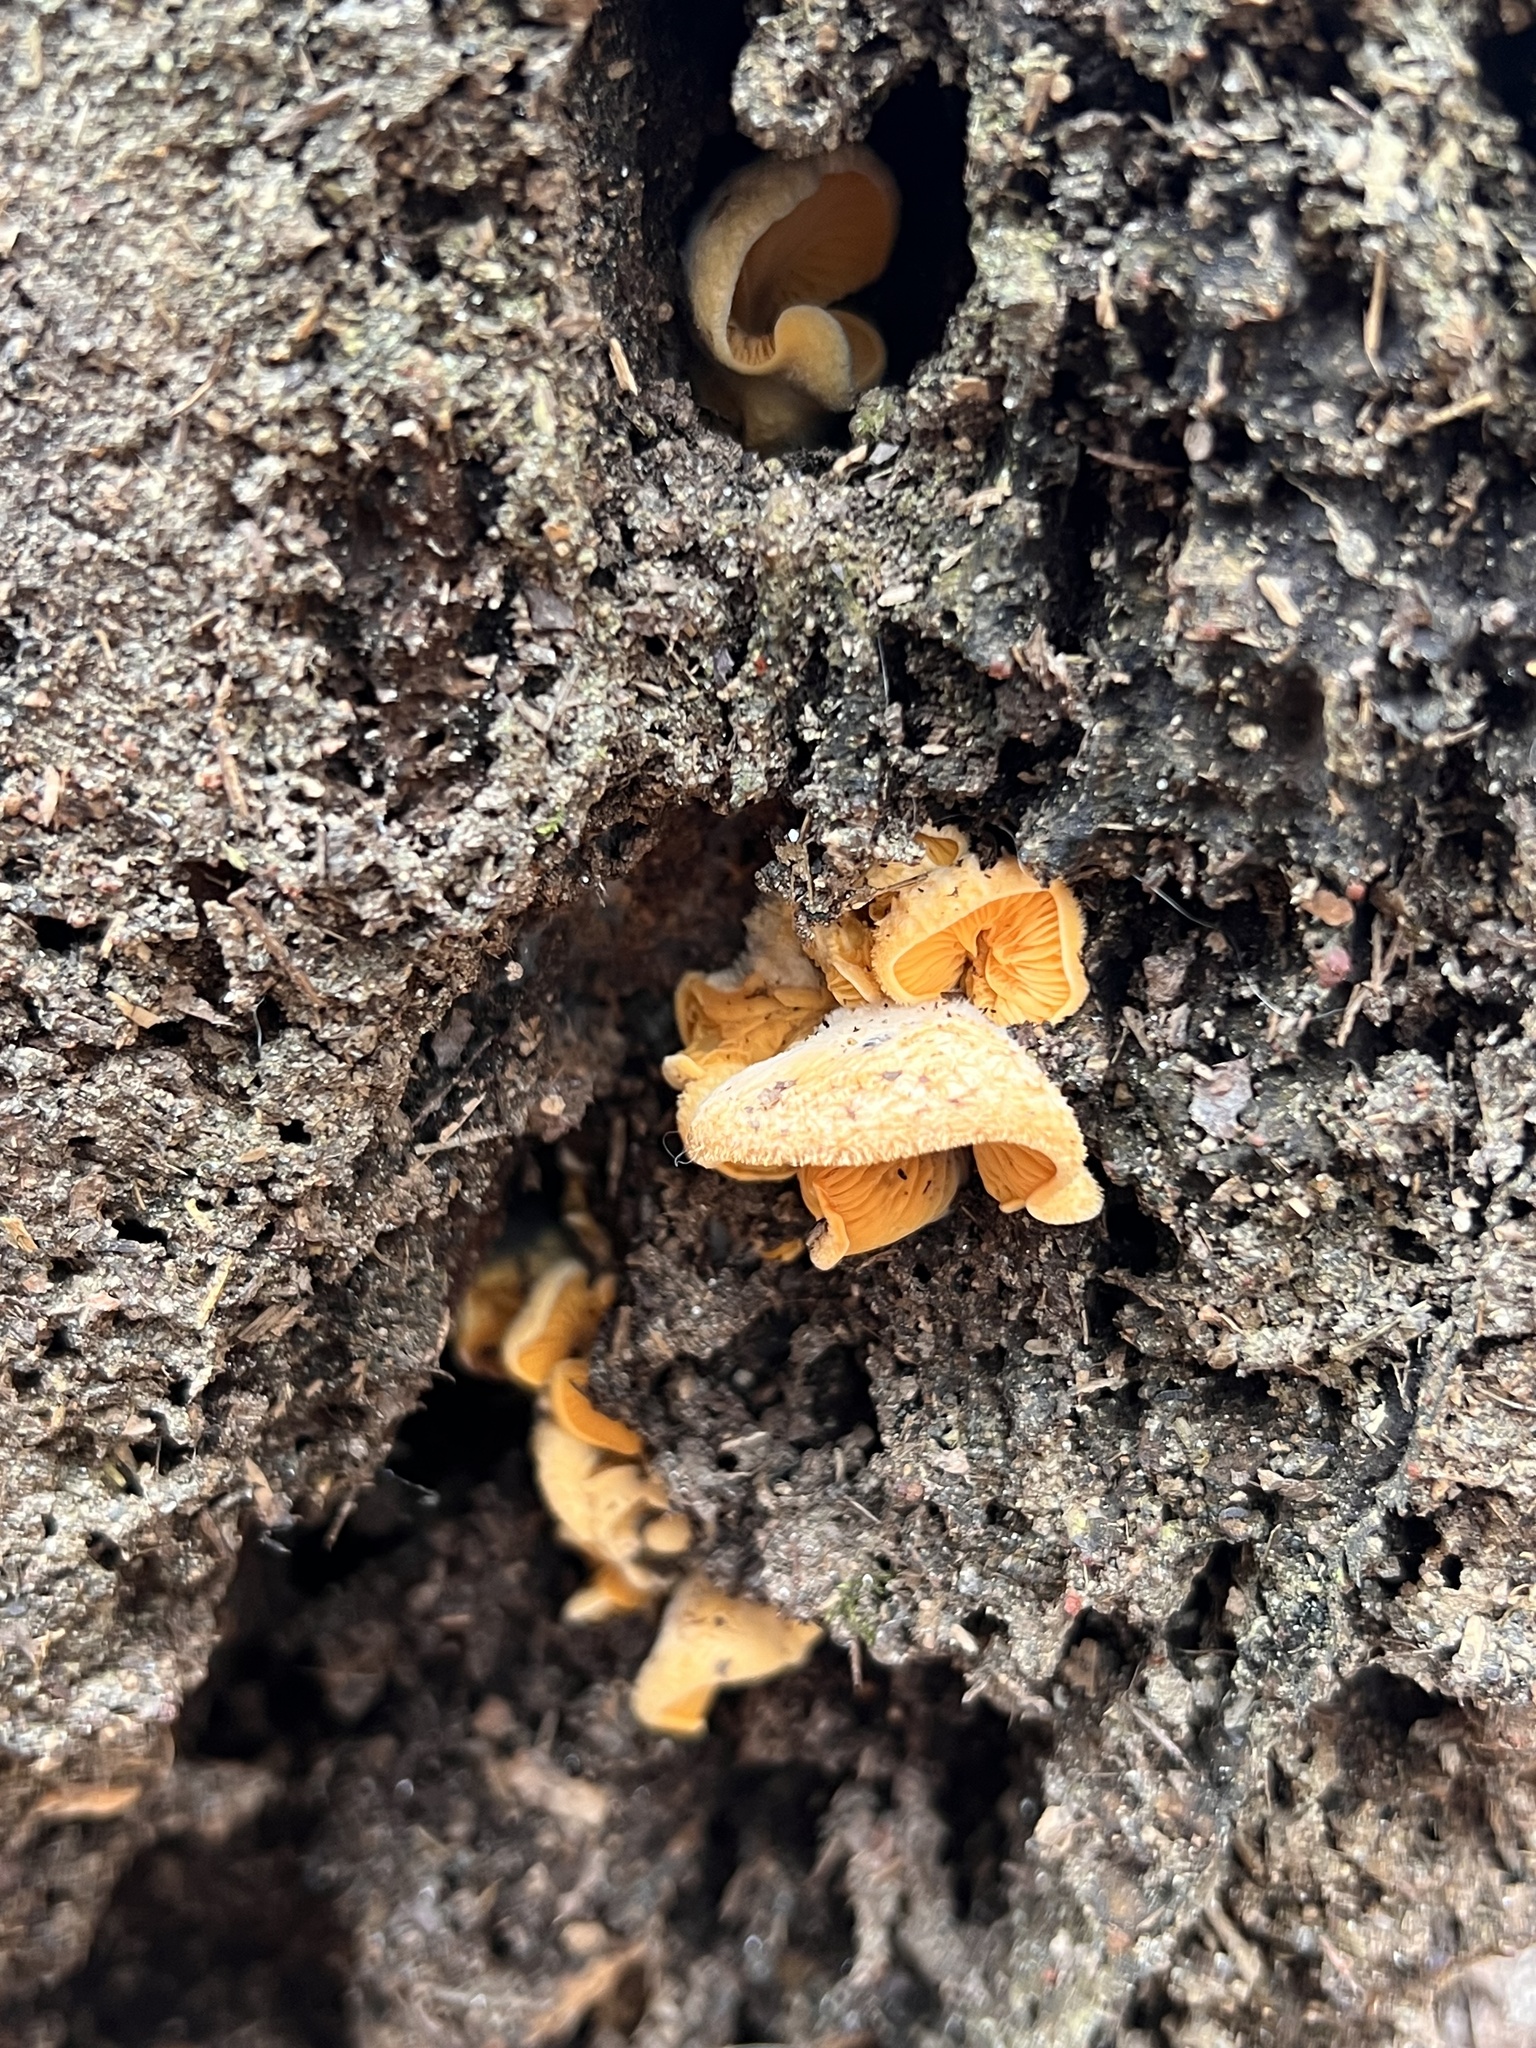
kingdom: Fungi
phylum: Basidiomycota
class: Agaricomycetes
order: Agaricales
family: Phyllotopsidaceae
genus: Phyllotopsis
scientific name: Phyllotopsis nidulans
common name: Orange mock oyster
